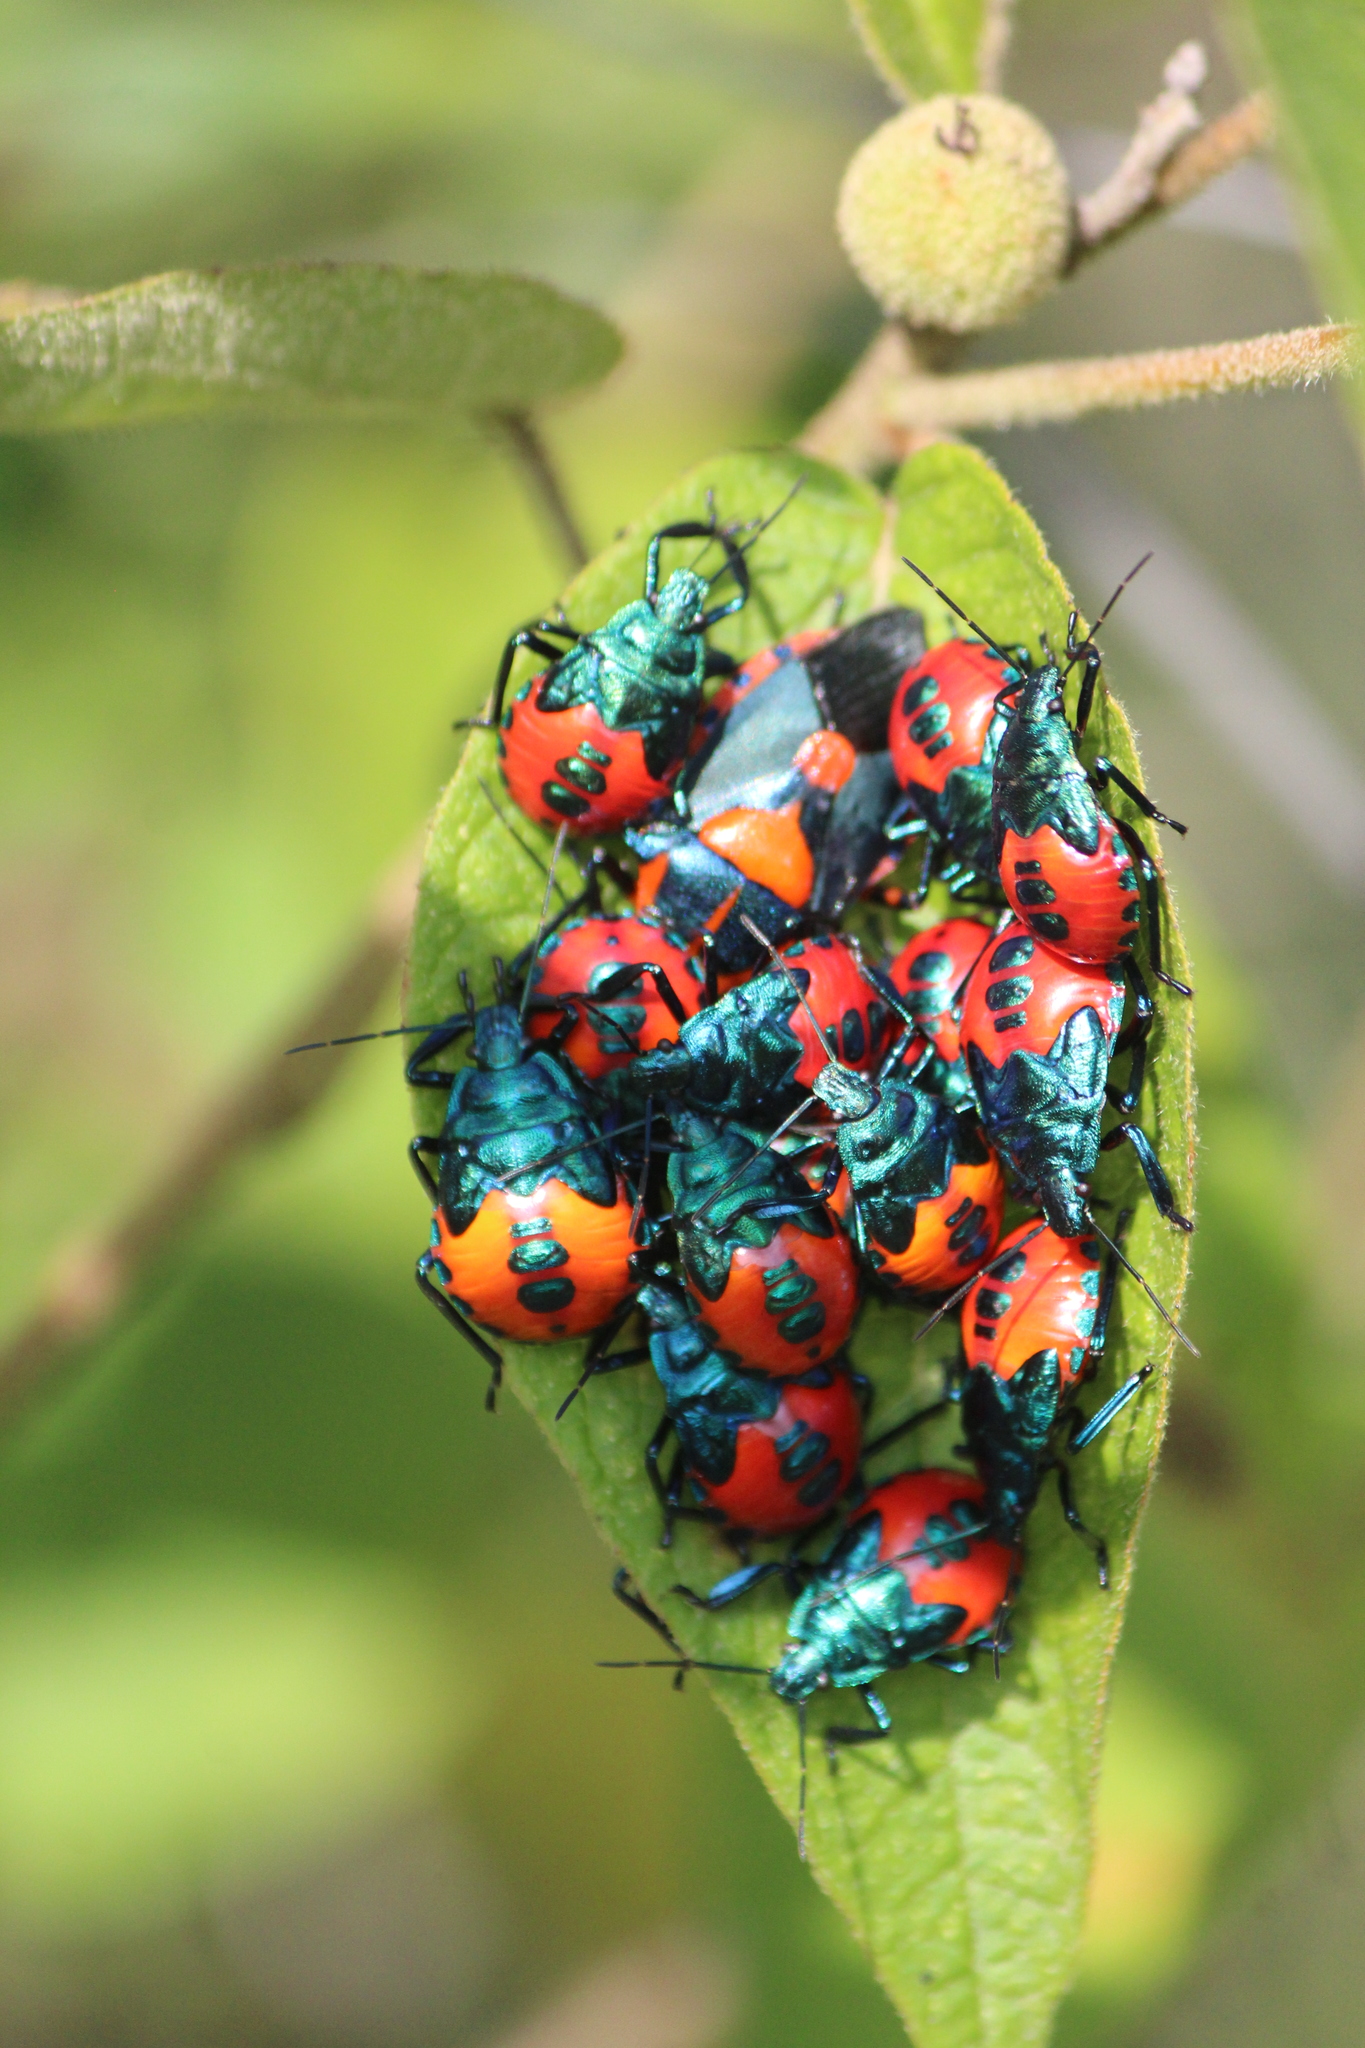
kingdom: Animalia
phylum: Arthropoda
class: Insecta
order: Hemiptera
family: Pentatomidae
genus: Euthyrhynchus
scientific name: Euthyrhynchus floridanus
